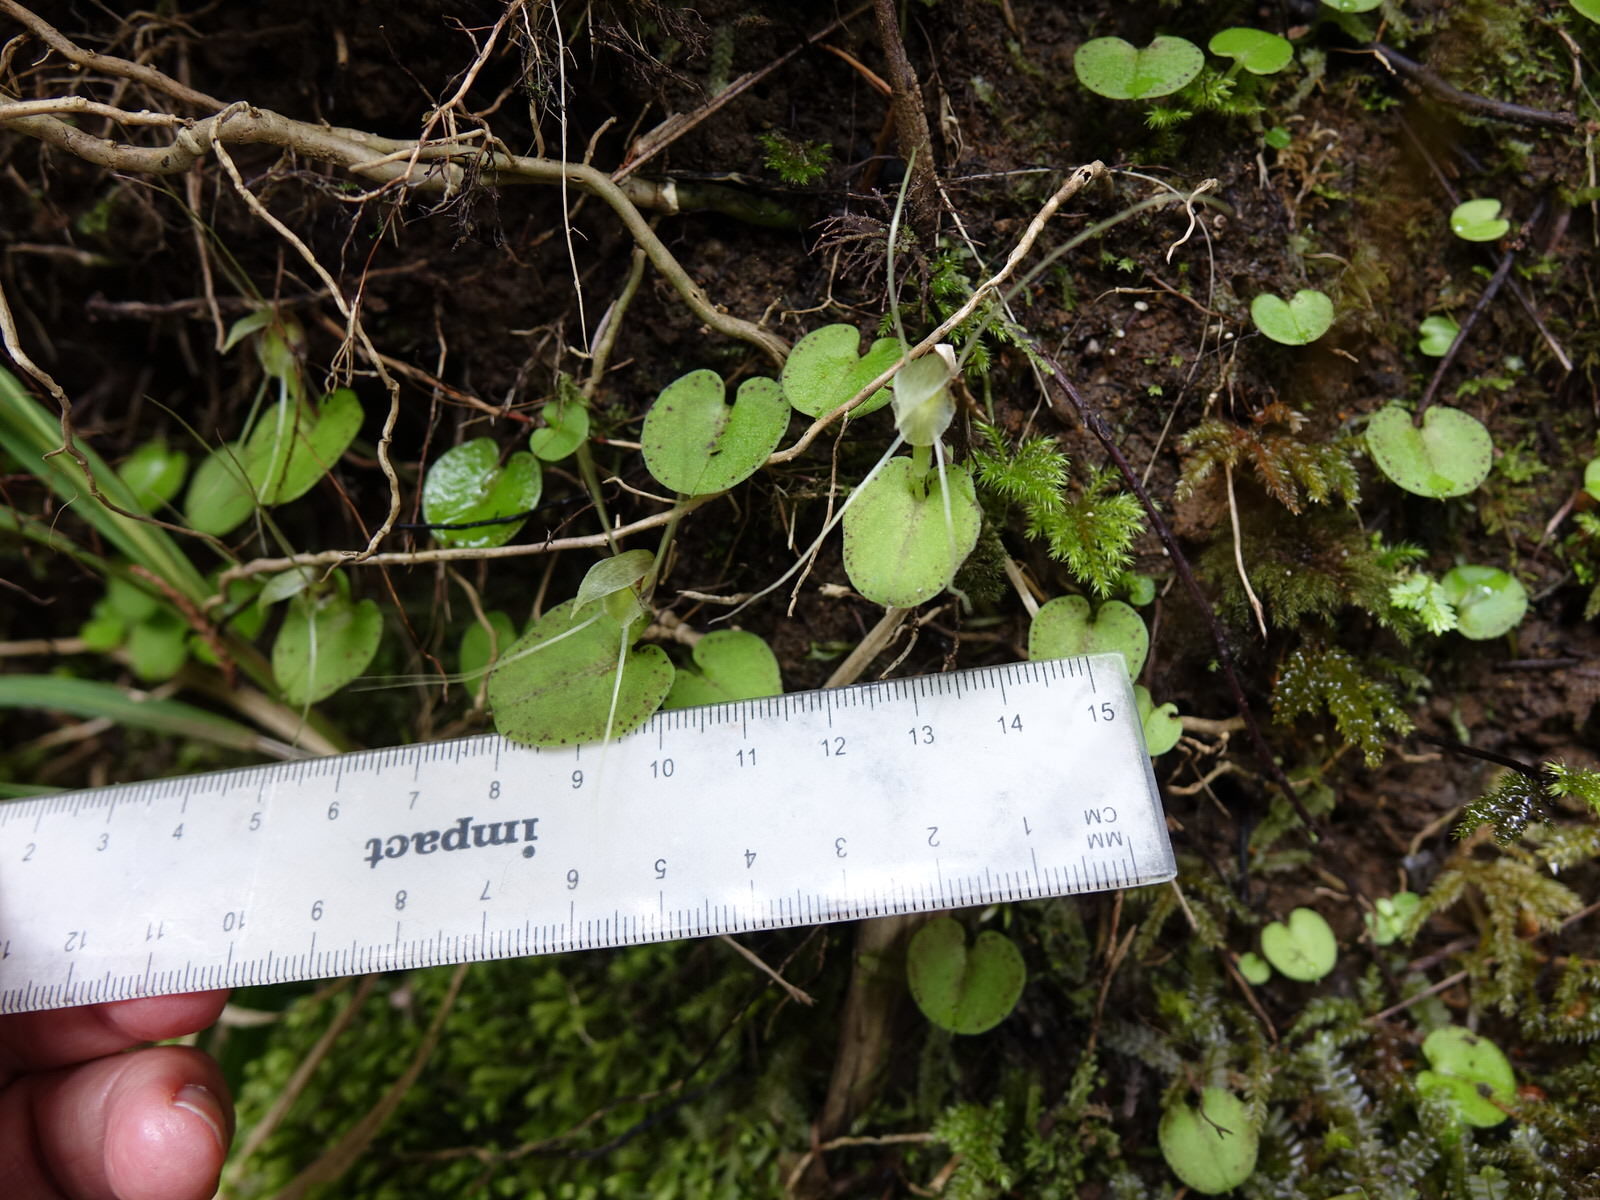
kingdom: Plantae
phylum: Tracheophyta
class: Liliopsida
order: Asparagales
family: Orchidaceae
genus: Corybas
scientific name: Corybas rivularis
